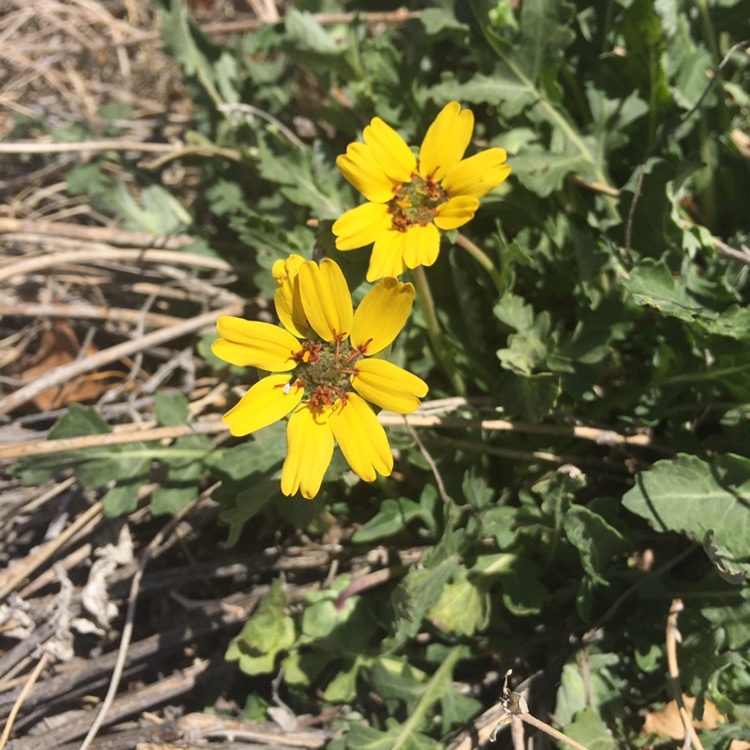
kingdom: Plantae
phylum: Tracheophyta
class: Magnoliopsida
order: Asterales
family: Asteraceae
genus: Berlandiera
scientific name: Berlandiera lyrata
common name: Chocolate-flower
